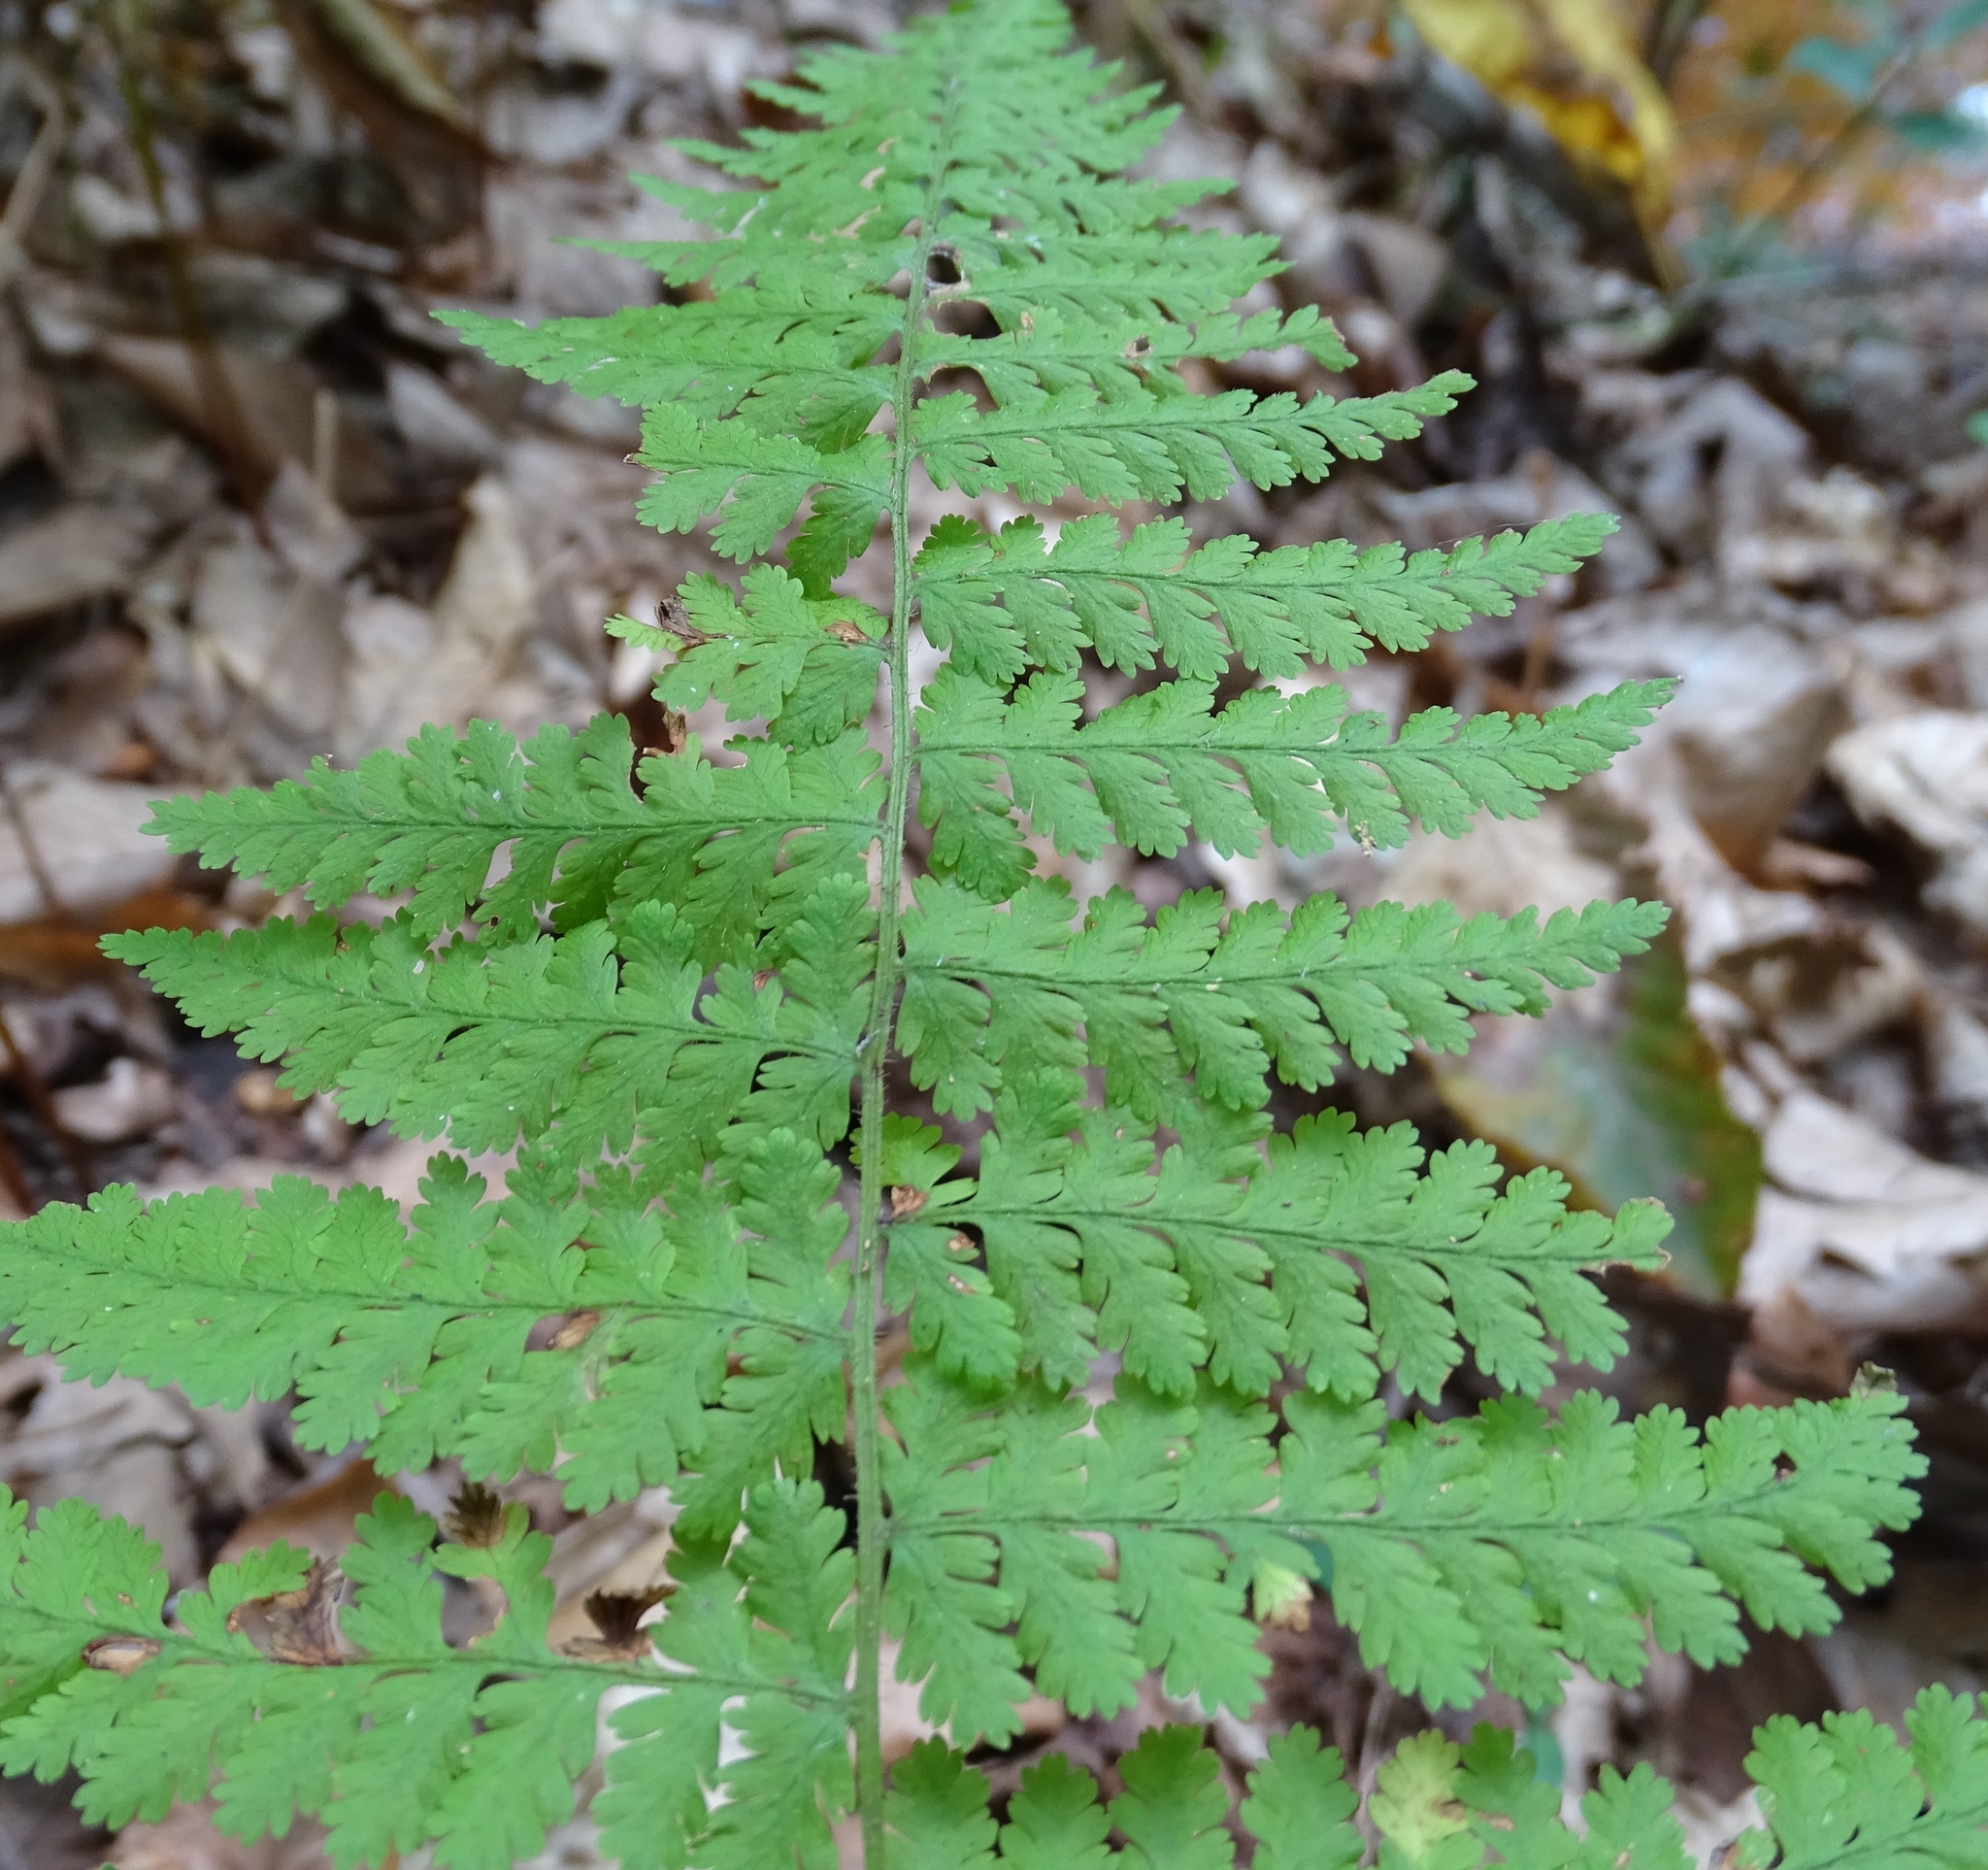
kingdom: Plantae
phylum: Tracheophyta
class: Polypodiopsida
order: Polypodiales
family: Dennstaedtiaceae
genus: Sitobolium
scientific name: Sitobolium punctilobum
